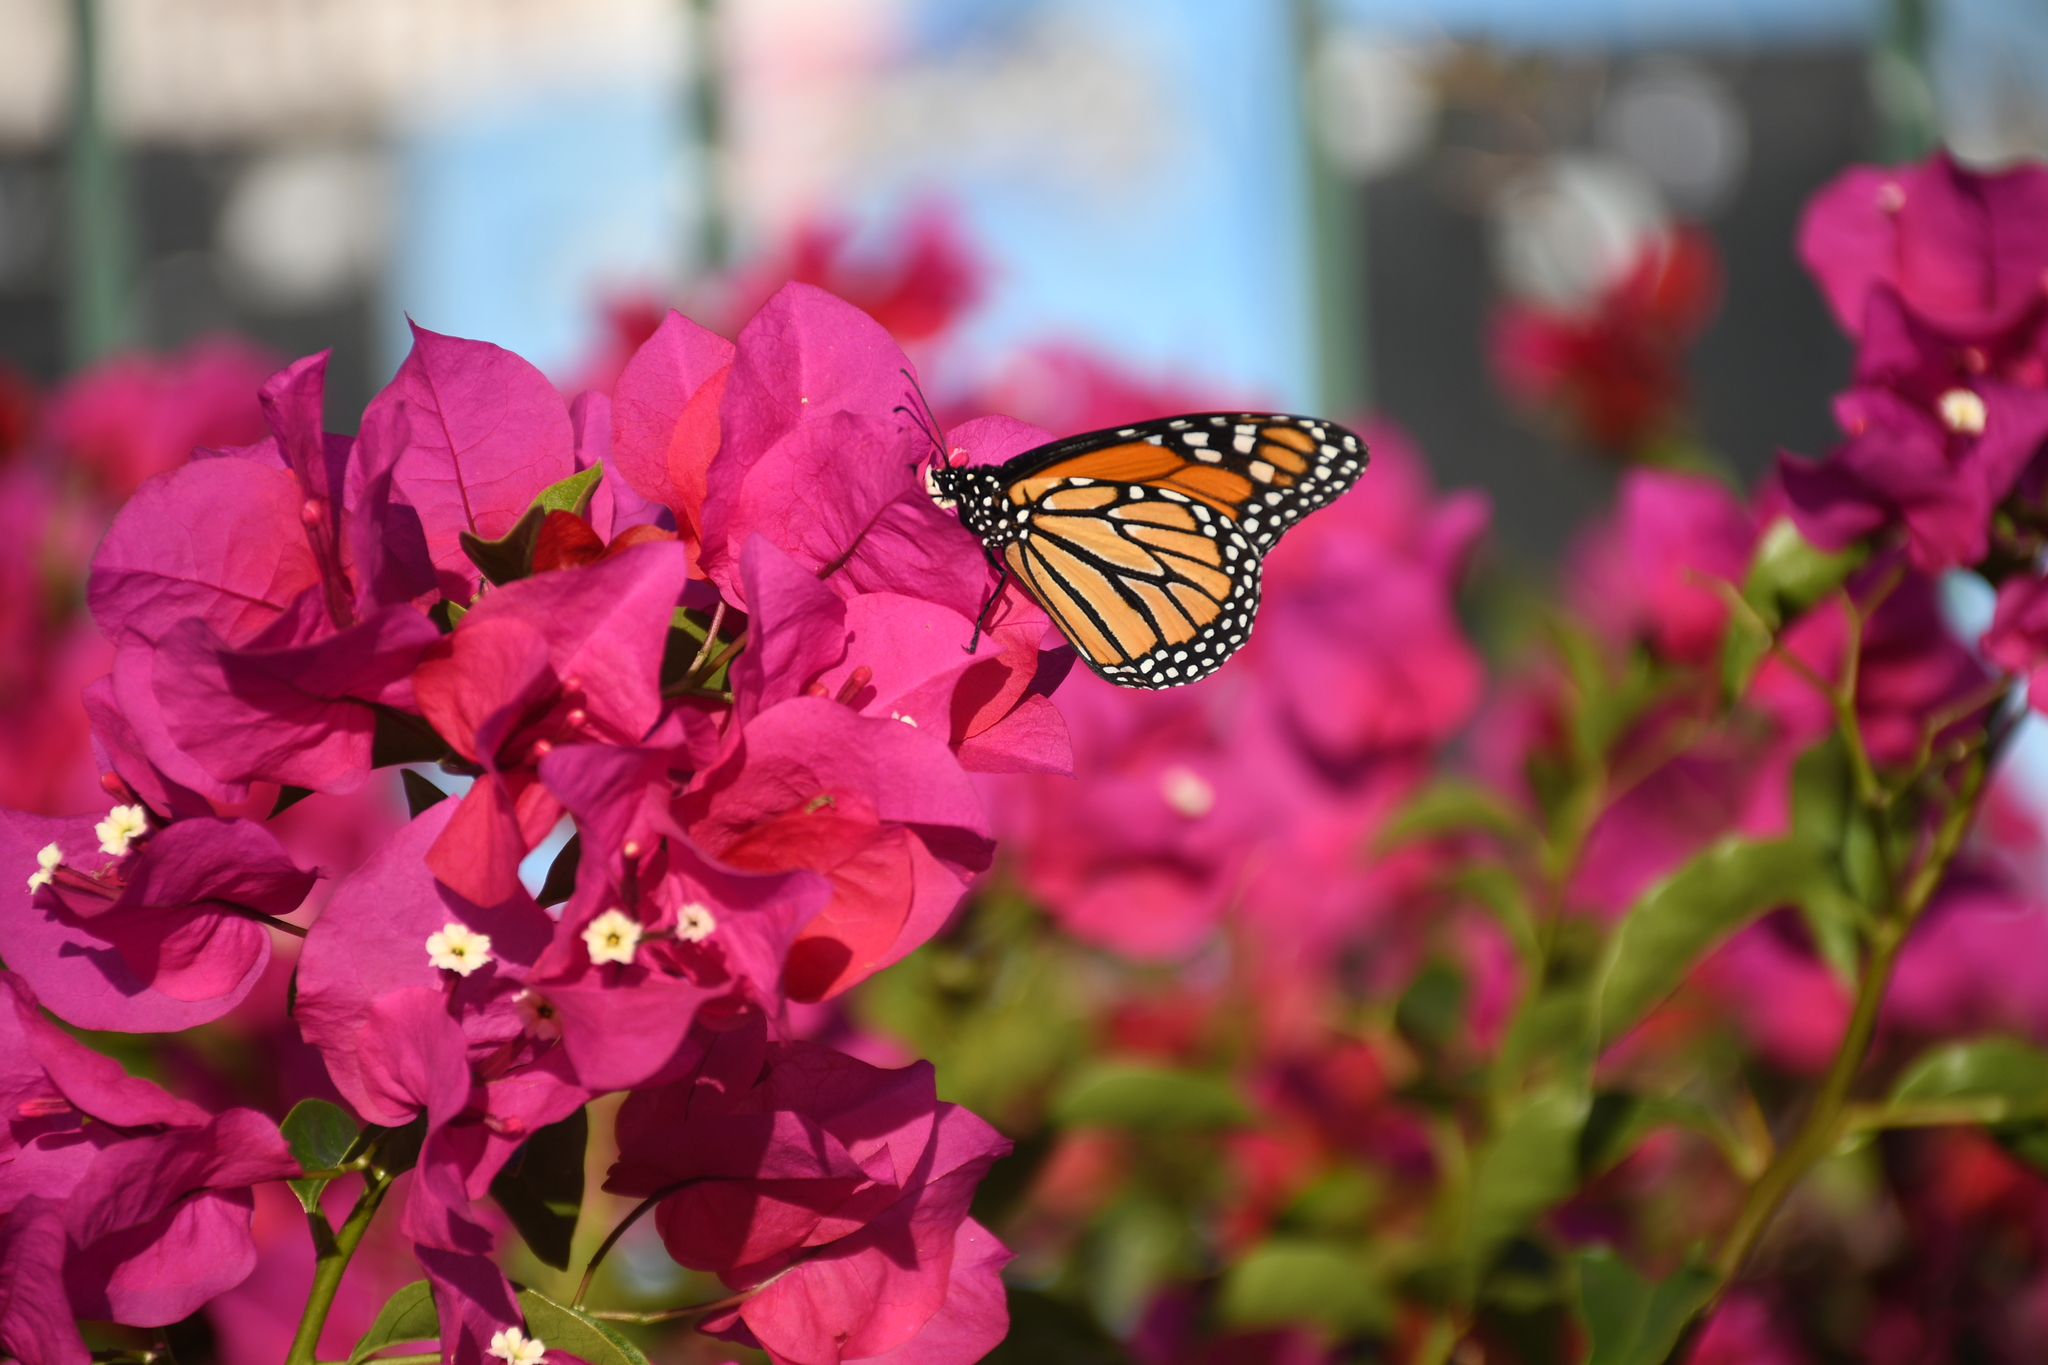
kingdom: Animalia
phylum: Arthropoda
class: Insecta
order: Lepidoptera
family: Nymphalidae
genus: Danaus
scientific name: Danaus plexippus
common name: Monarch
